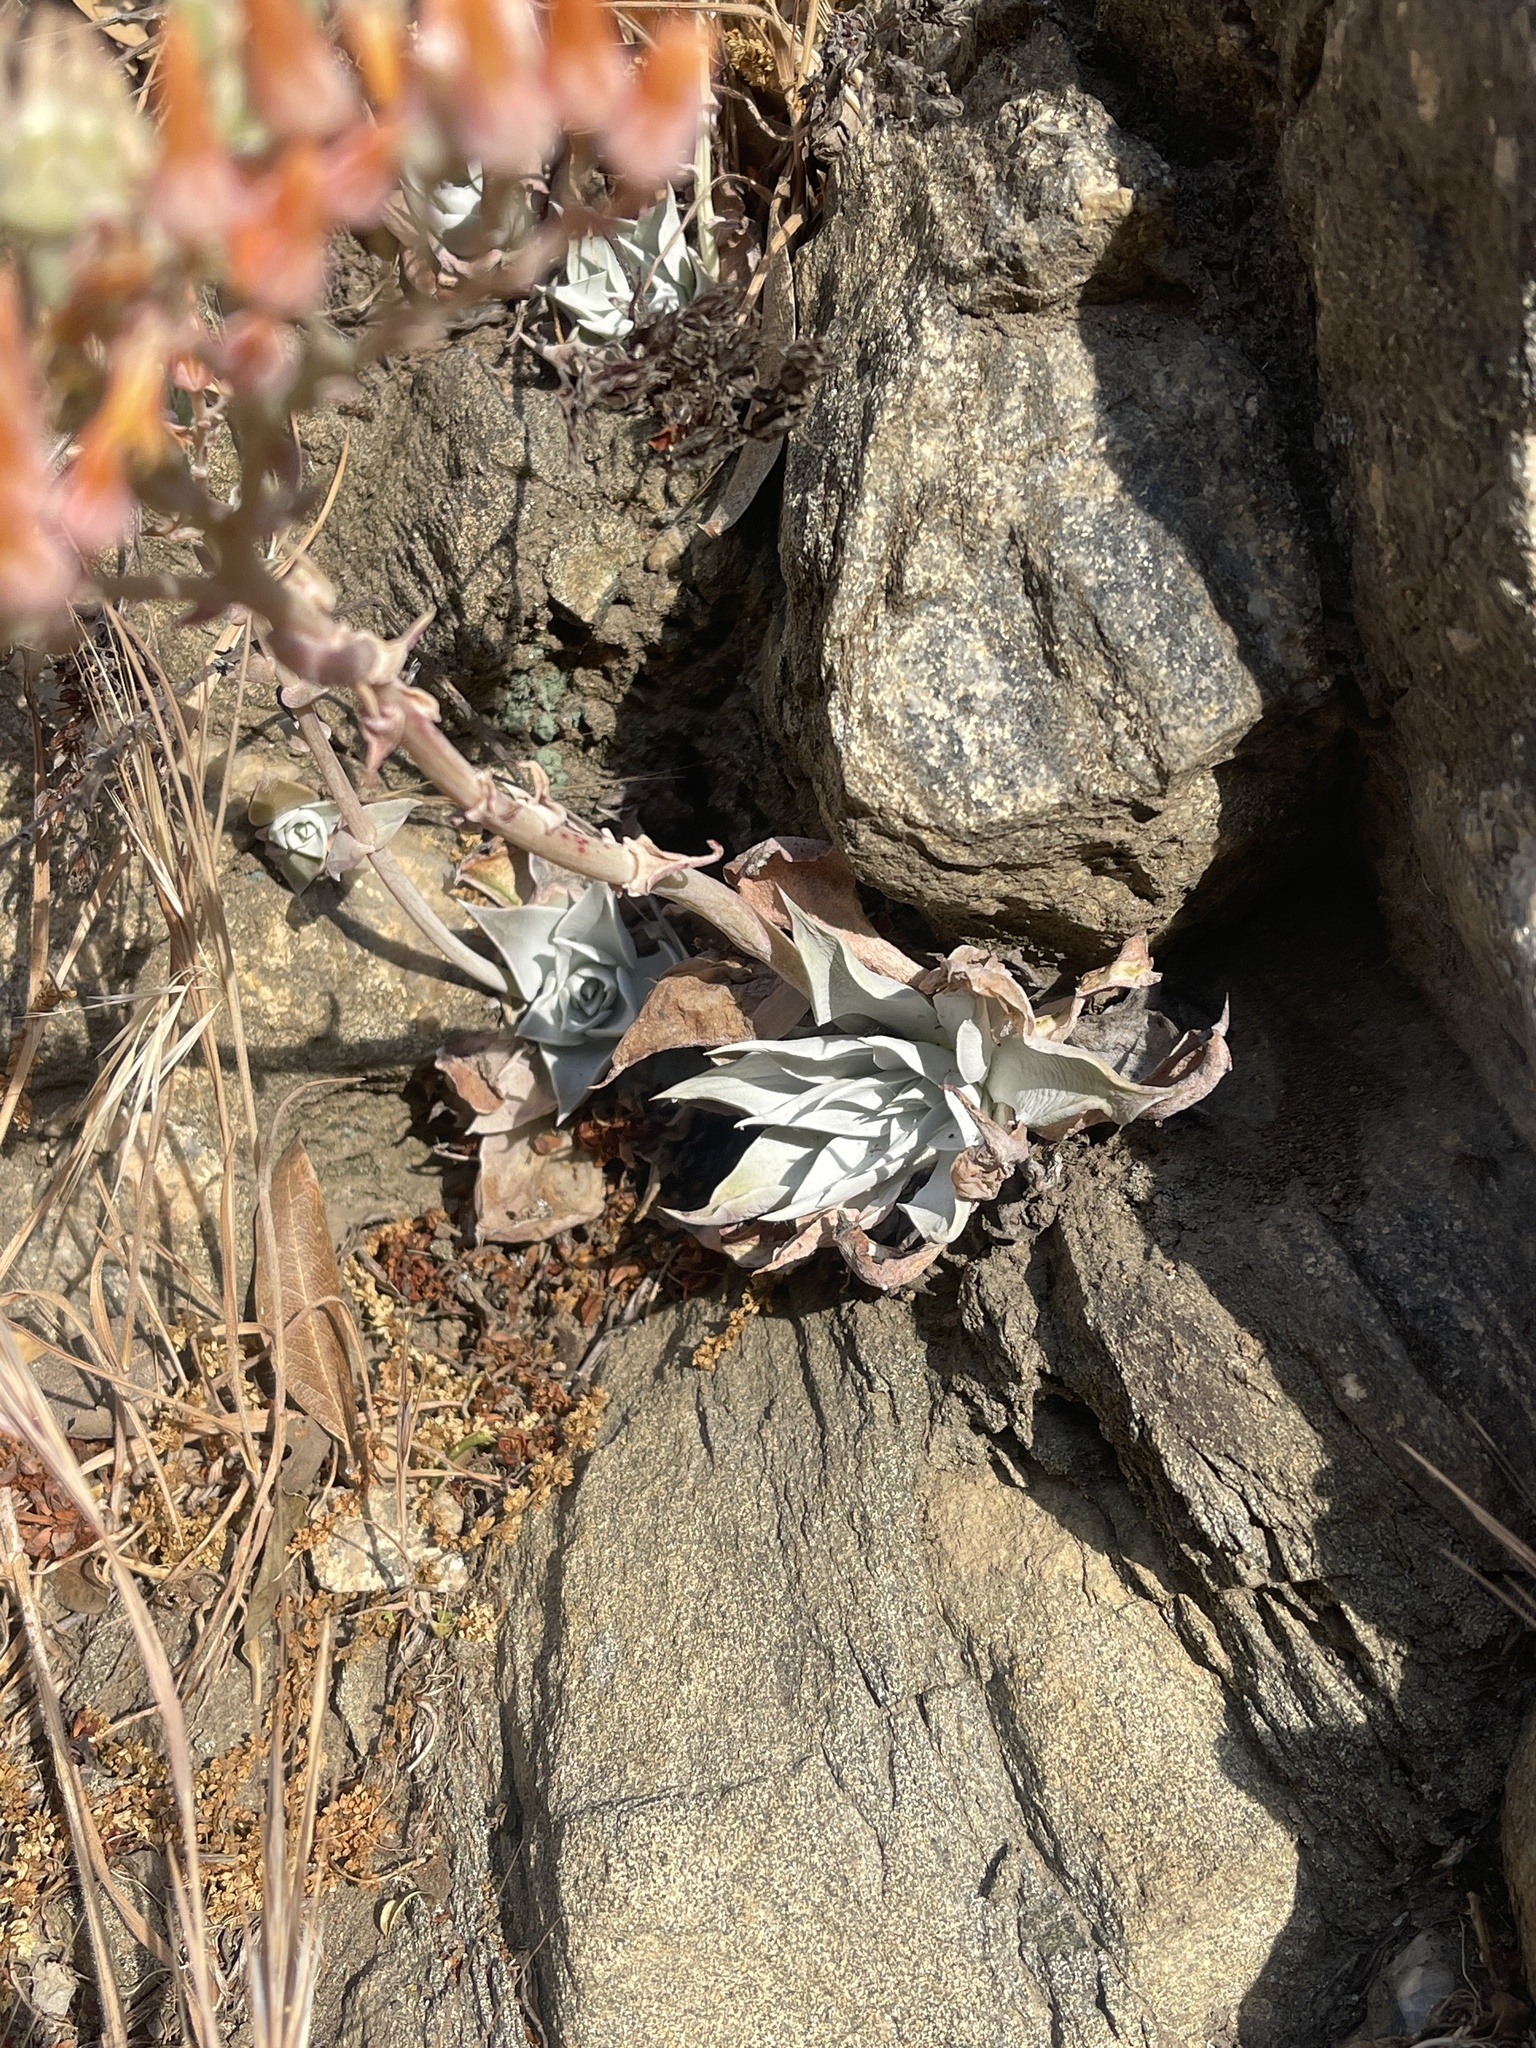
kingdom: Plantae
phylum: Tracheophyta
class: Magnoliopsida
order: Saxifragales
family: Crassulaceae
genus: Dudleya
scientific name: Dudleya cymosa
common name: Canyon dudleya
